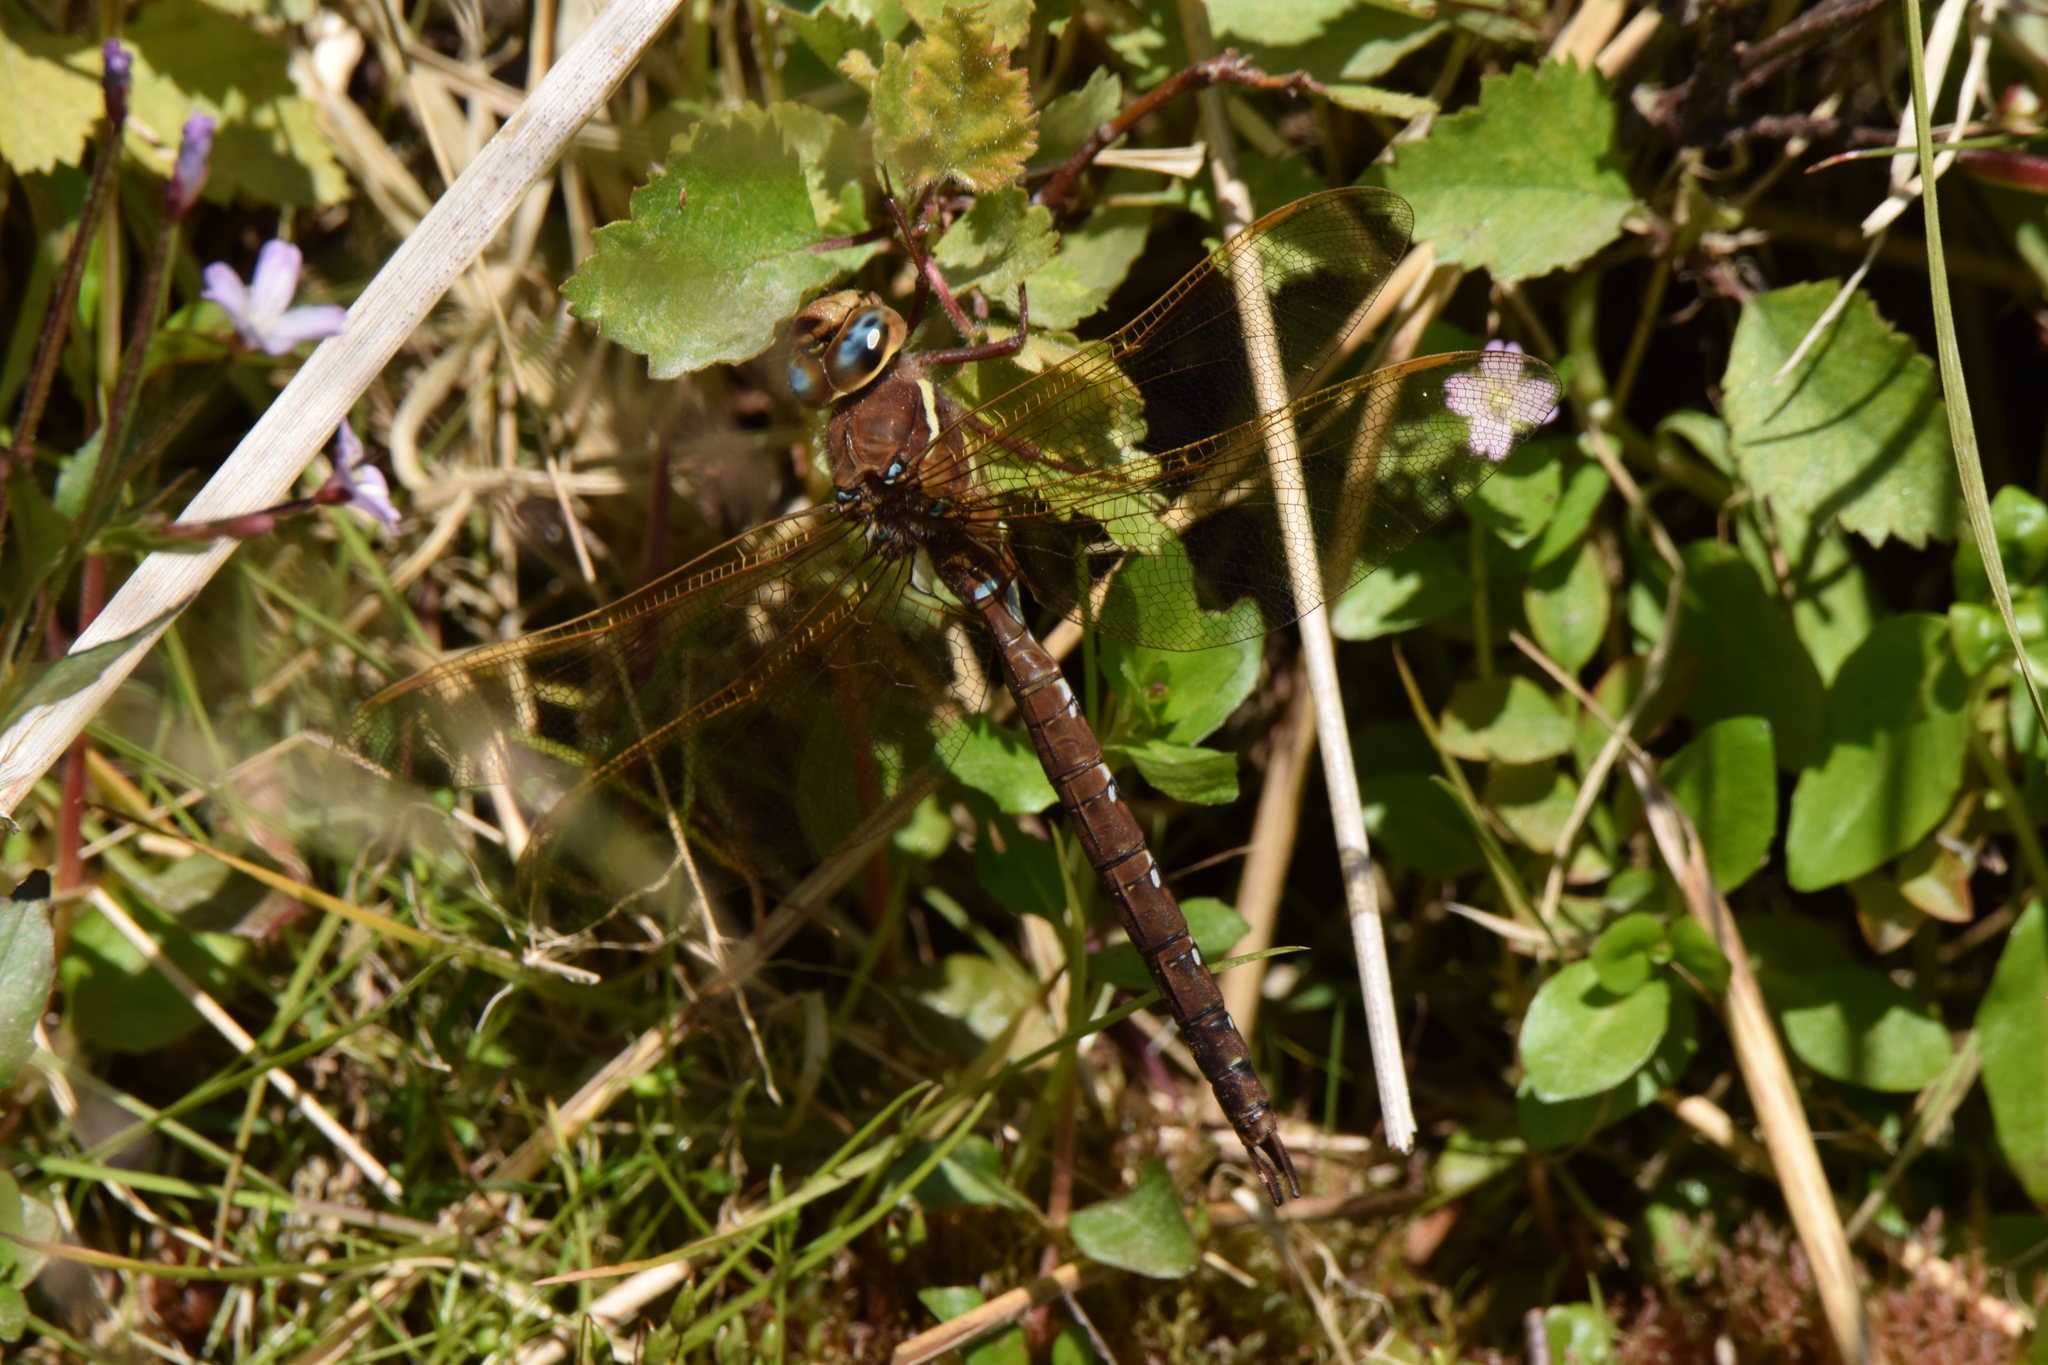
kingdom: Animalia
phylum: Arthropoda
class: Insecta
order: Odonata
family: Aeshnidae
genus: Aeshna
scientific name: Aeshna grandis
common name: Brown hawker
